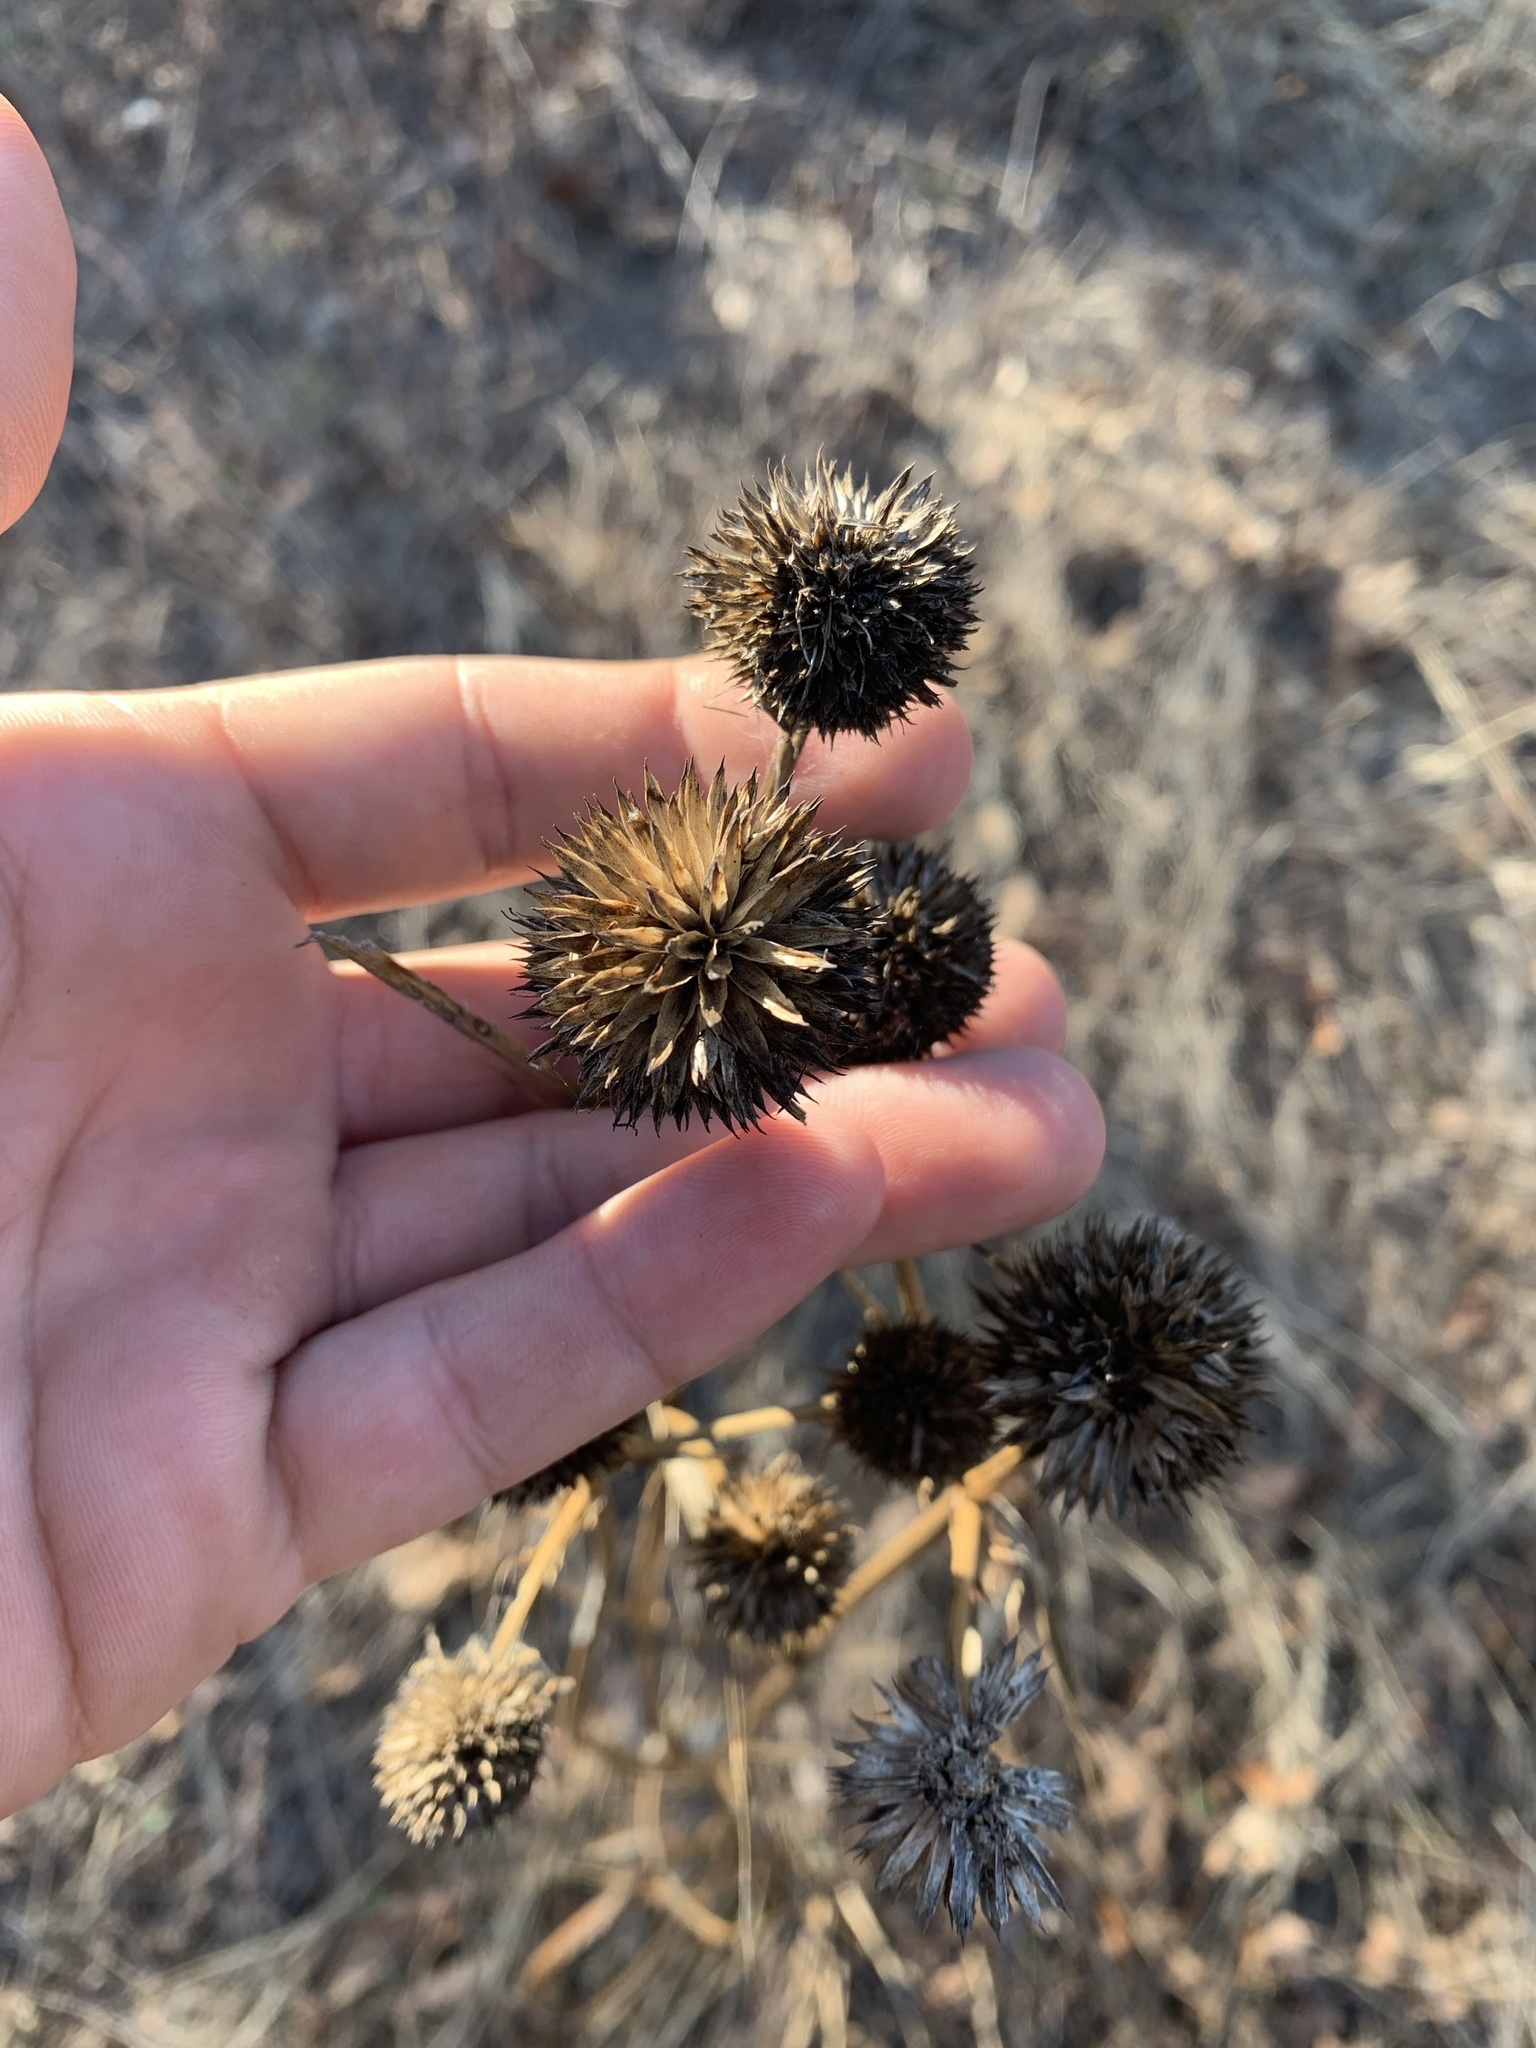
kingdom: Plantae
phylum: Tracheophyta
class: Magnoliopsida
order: Apiales
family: Apiaceae
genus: Eryngium
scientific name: Eryngium yuccifolium
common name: Button eryngo
